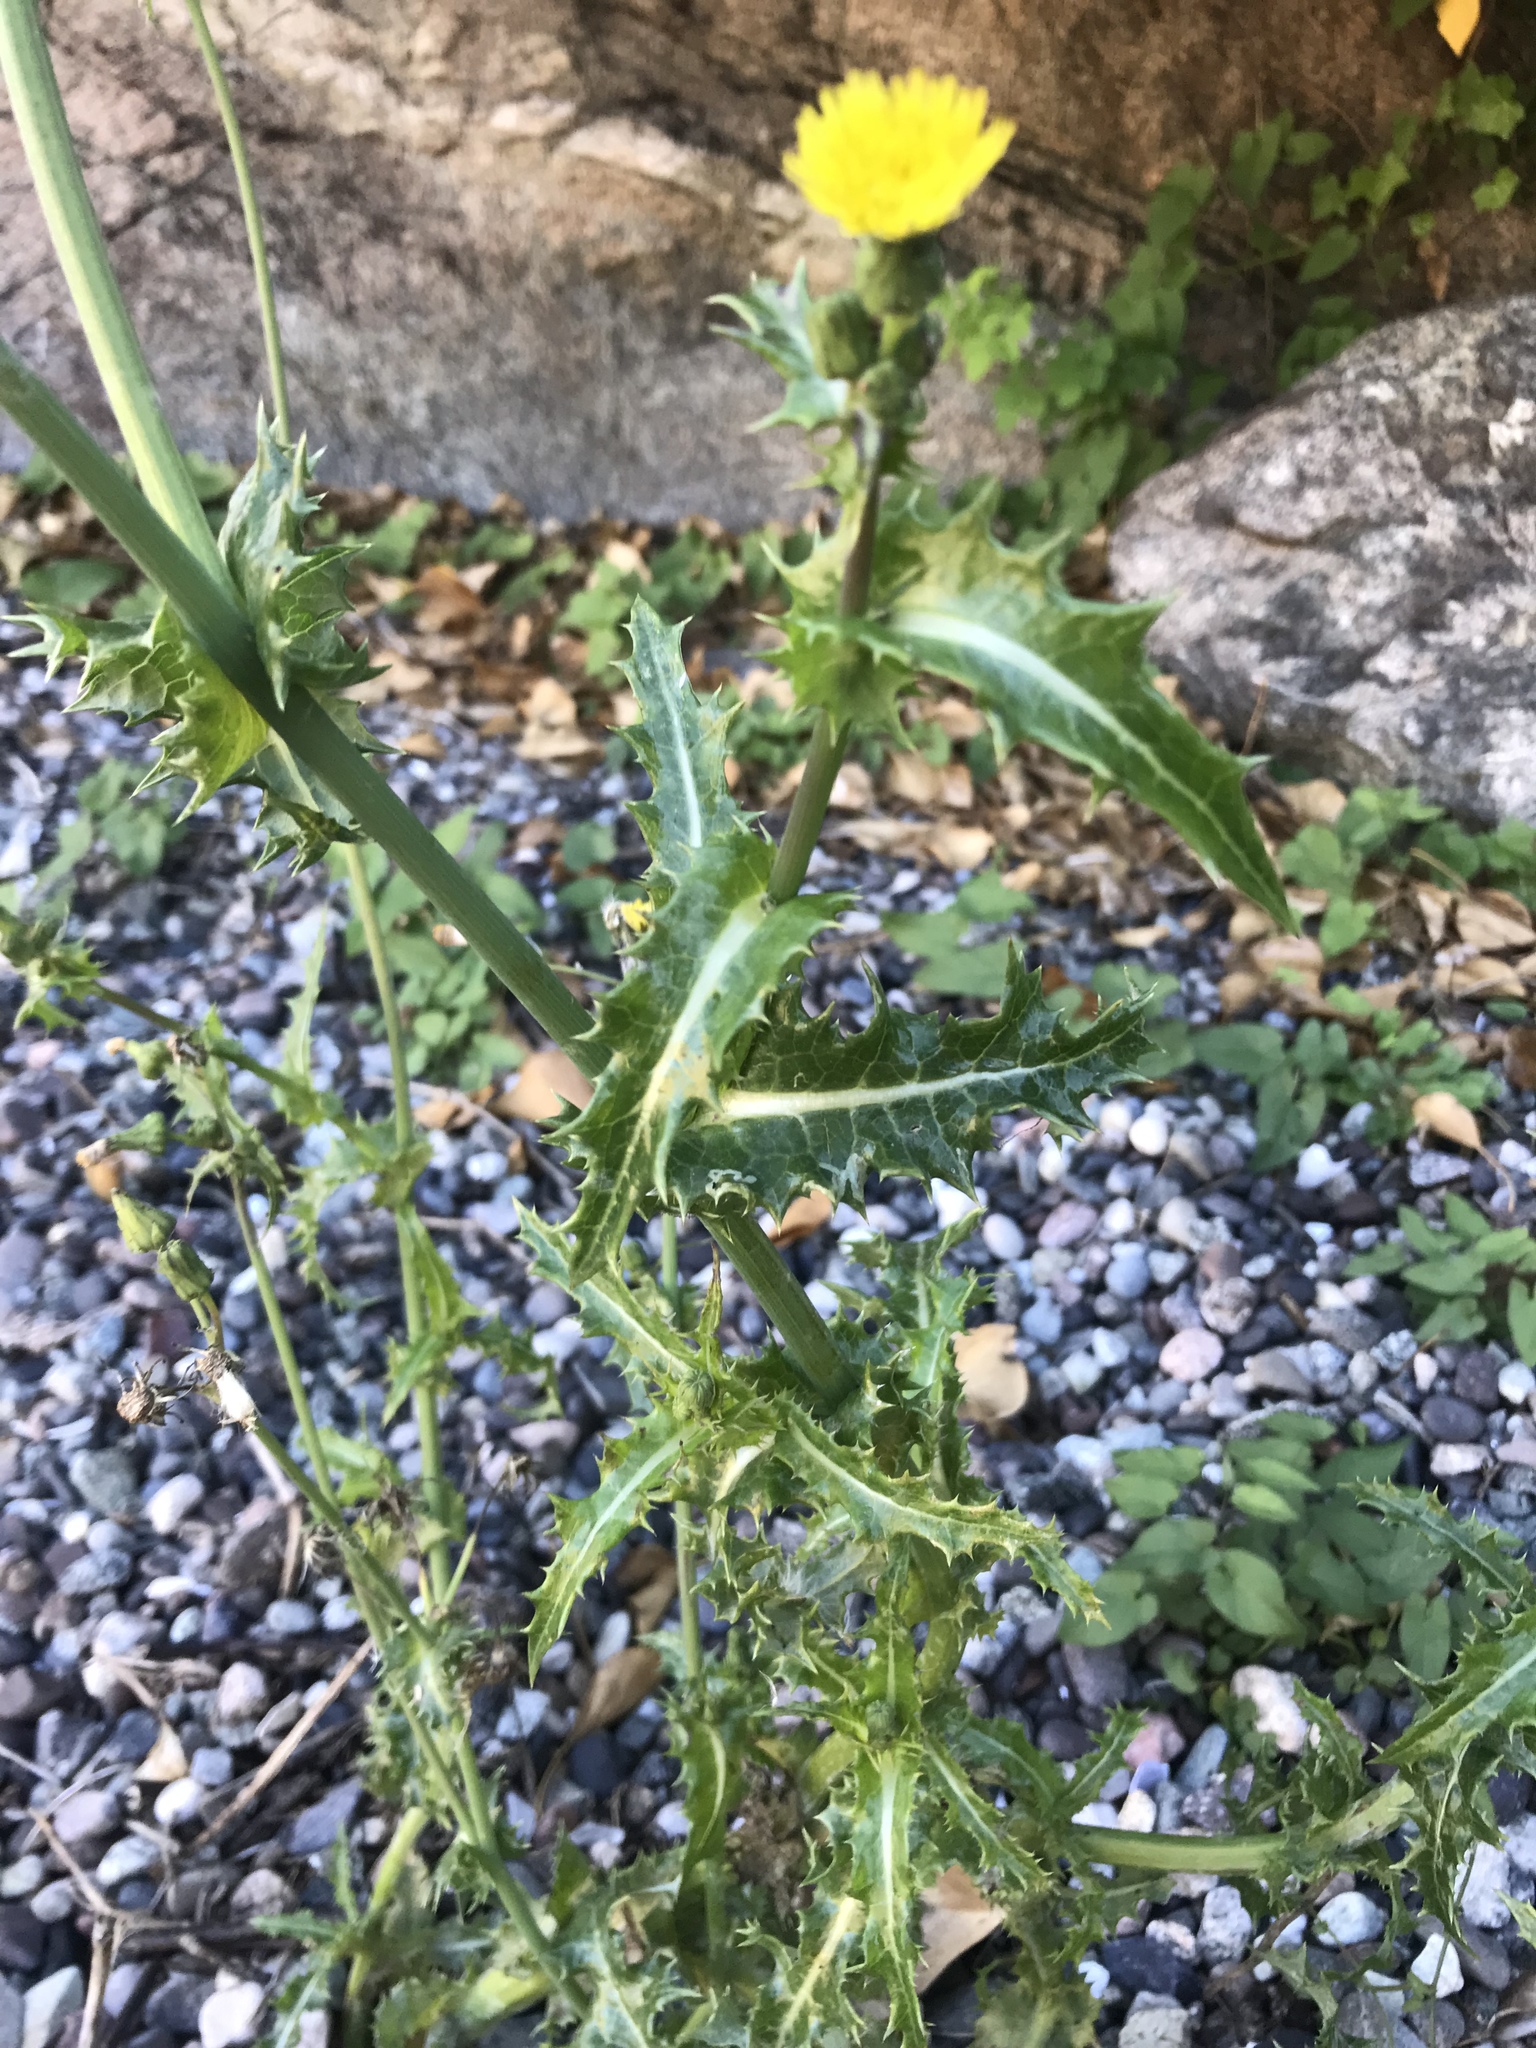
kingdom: Plantae
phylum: Tracheophyta
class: Magnoliopsida
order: Asterales
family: Asteraceae
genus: Sonchus
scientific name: Sonchus asper
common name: Prickly sow-thistle
